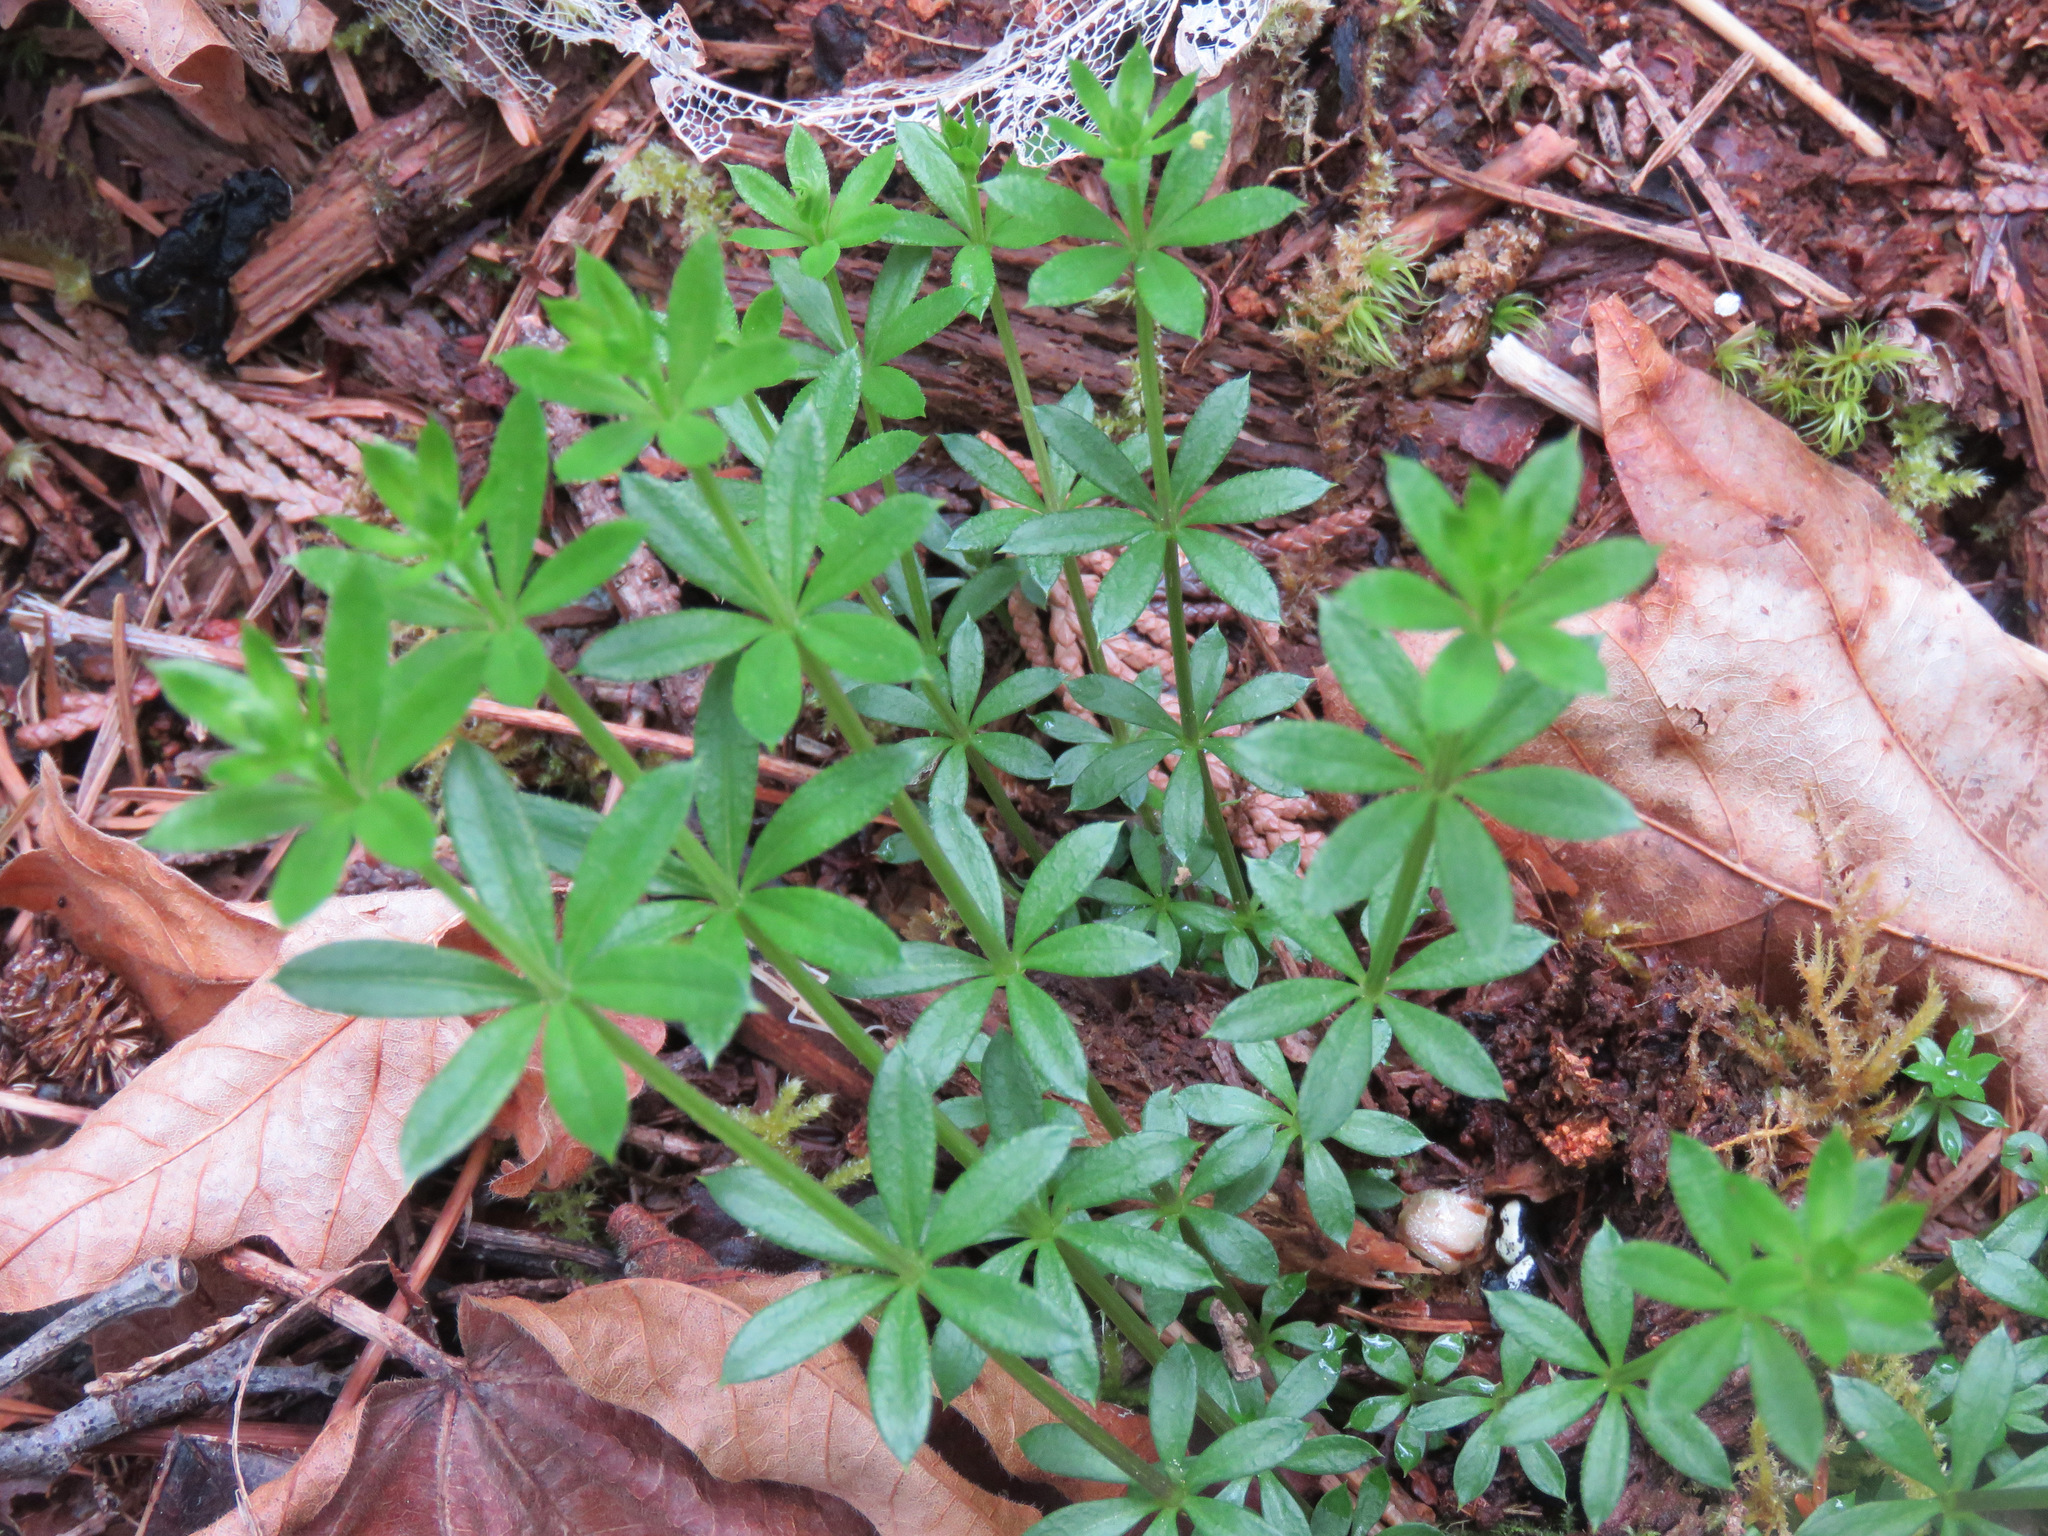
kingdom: Plantae
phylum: Tracheophyta
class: Magnoliopsida
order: Gentianales
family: Rubiaceae
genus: Galium
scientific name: Galium triflorum
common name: Fragrant bedstraw
